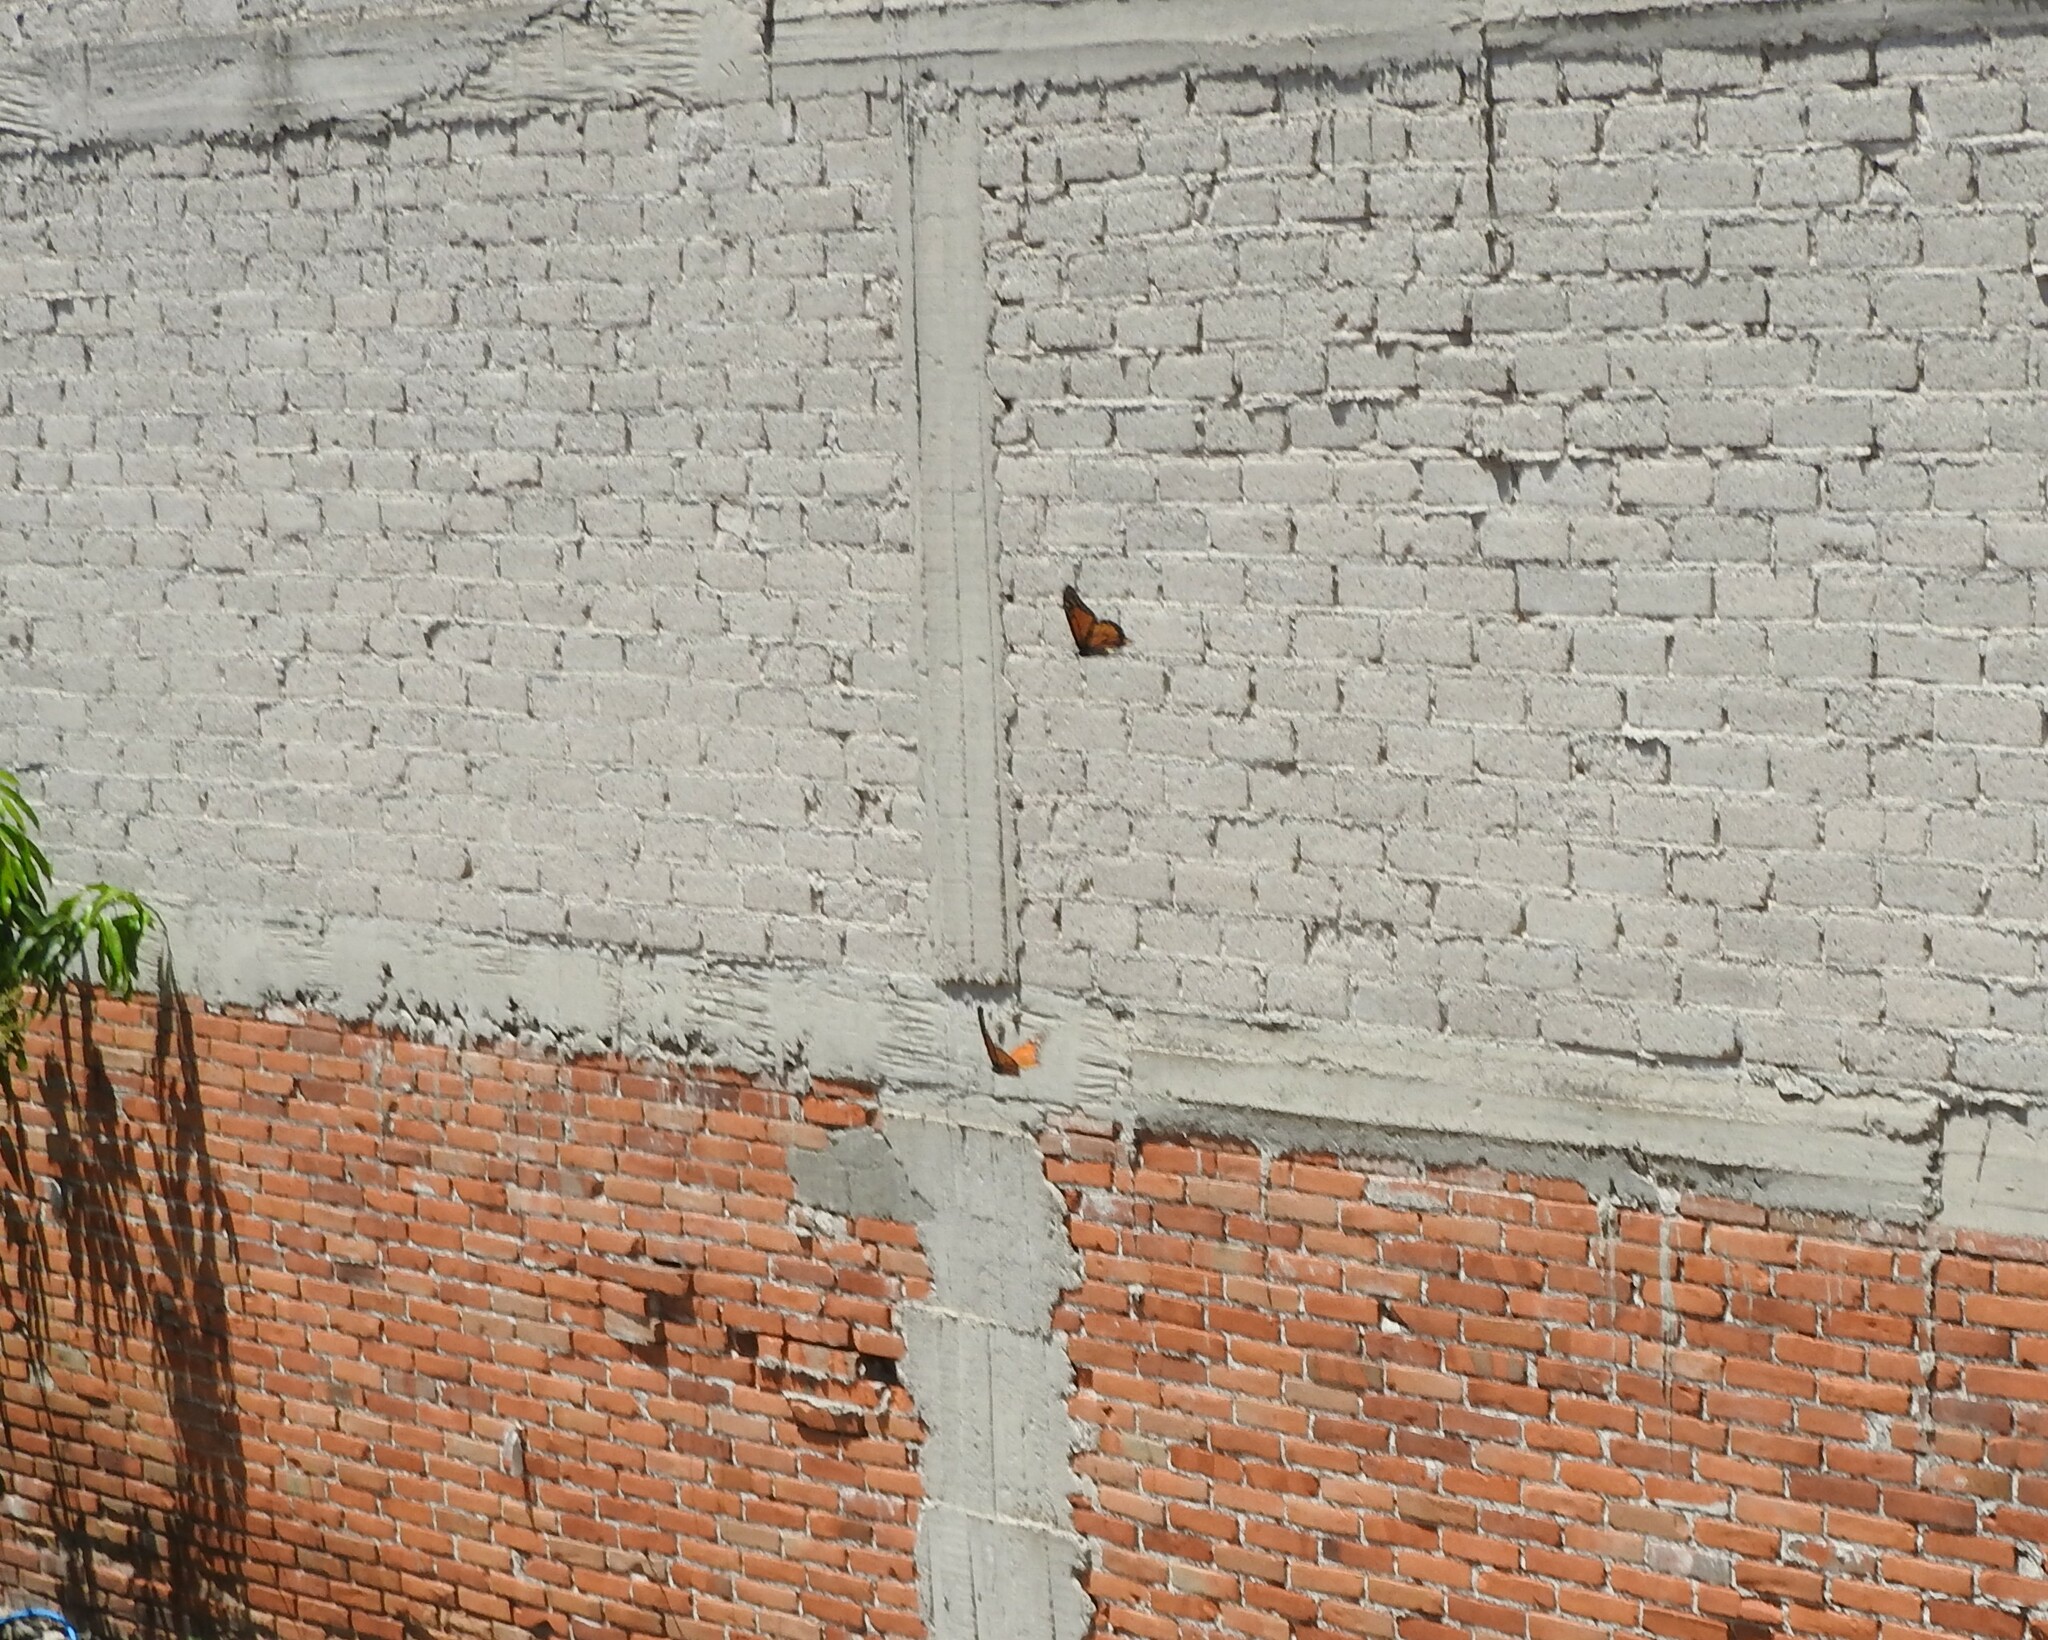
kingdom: Animalia
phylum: Arthropoda
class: Insecta
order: Lepidoptera
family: Nymphalidae
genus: Danaus
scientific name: Danaus plexippus
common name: Monarch
